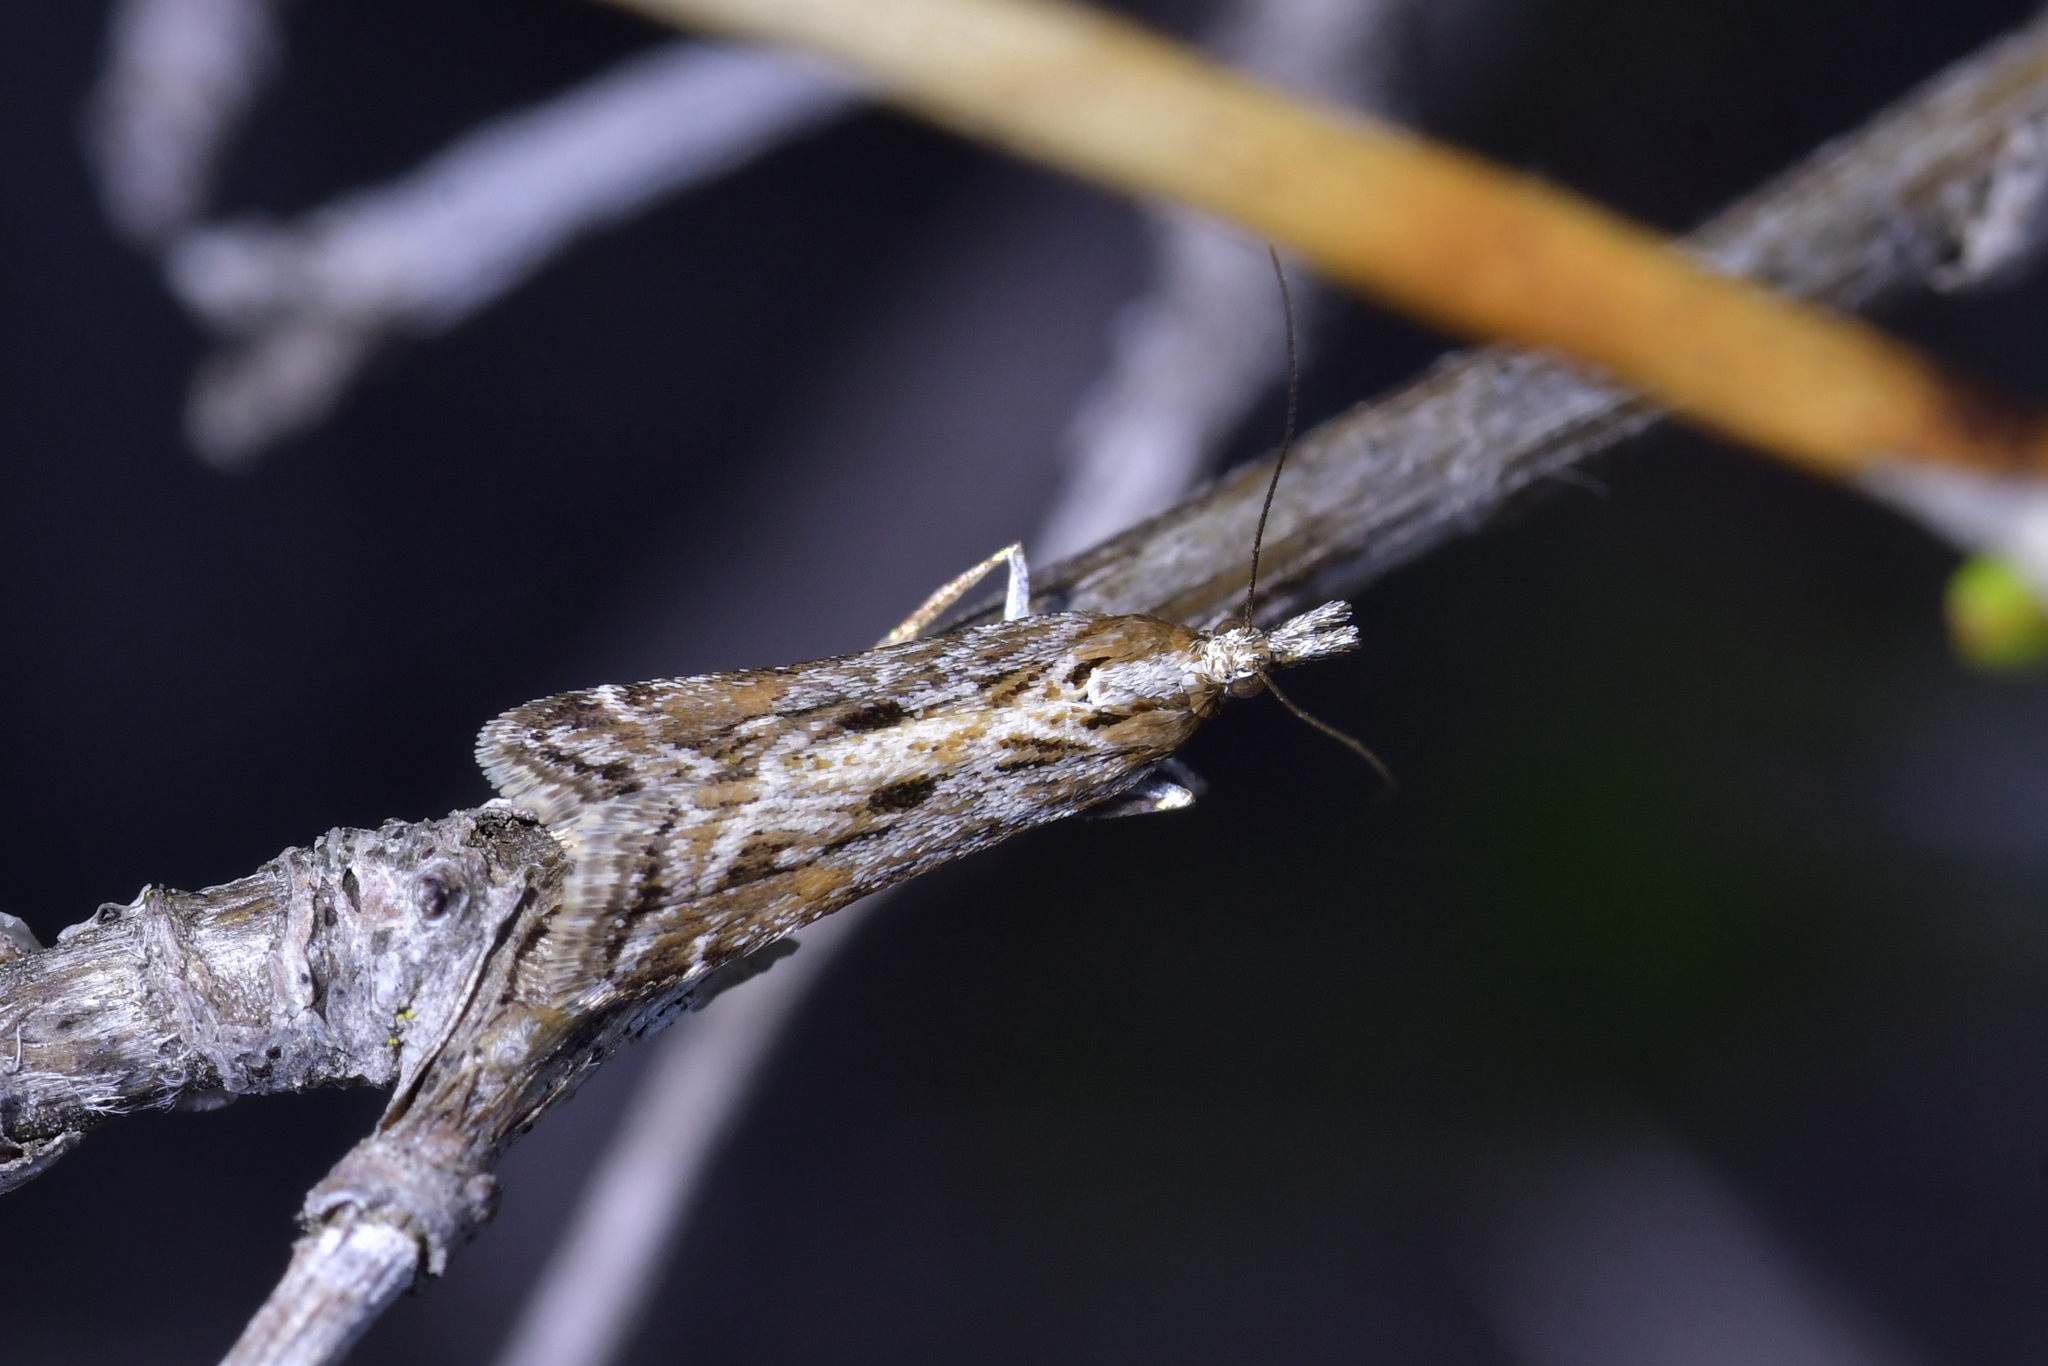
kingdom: Animalia
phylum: Arthropoda
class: Insecta
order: Lepidoptera
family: Crambidae
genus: Scoparia
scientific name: Scoparia exilis
